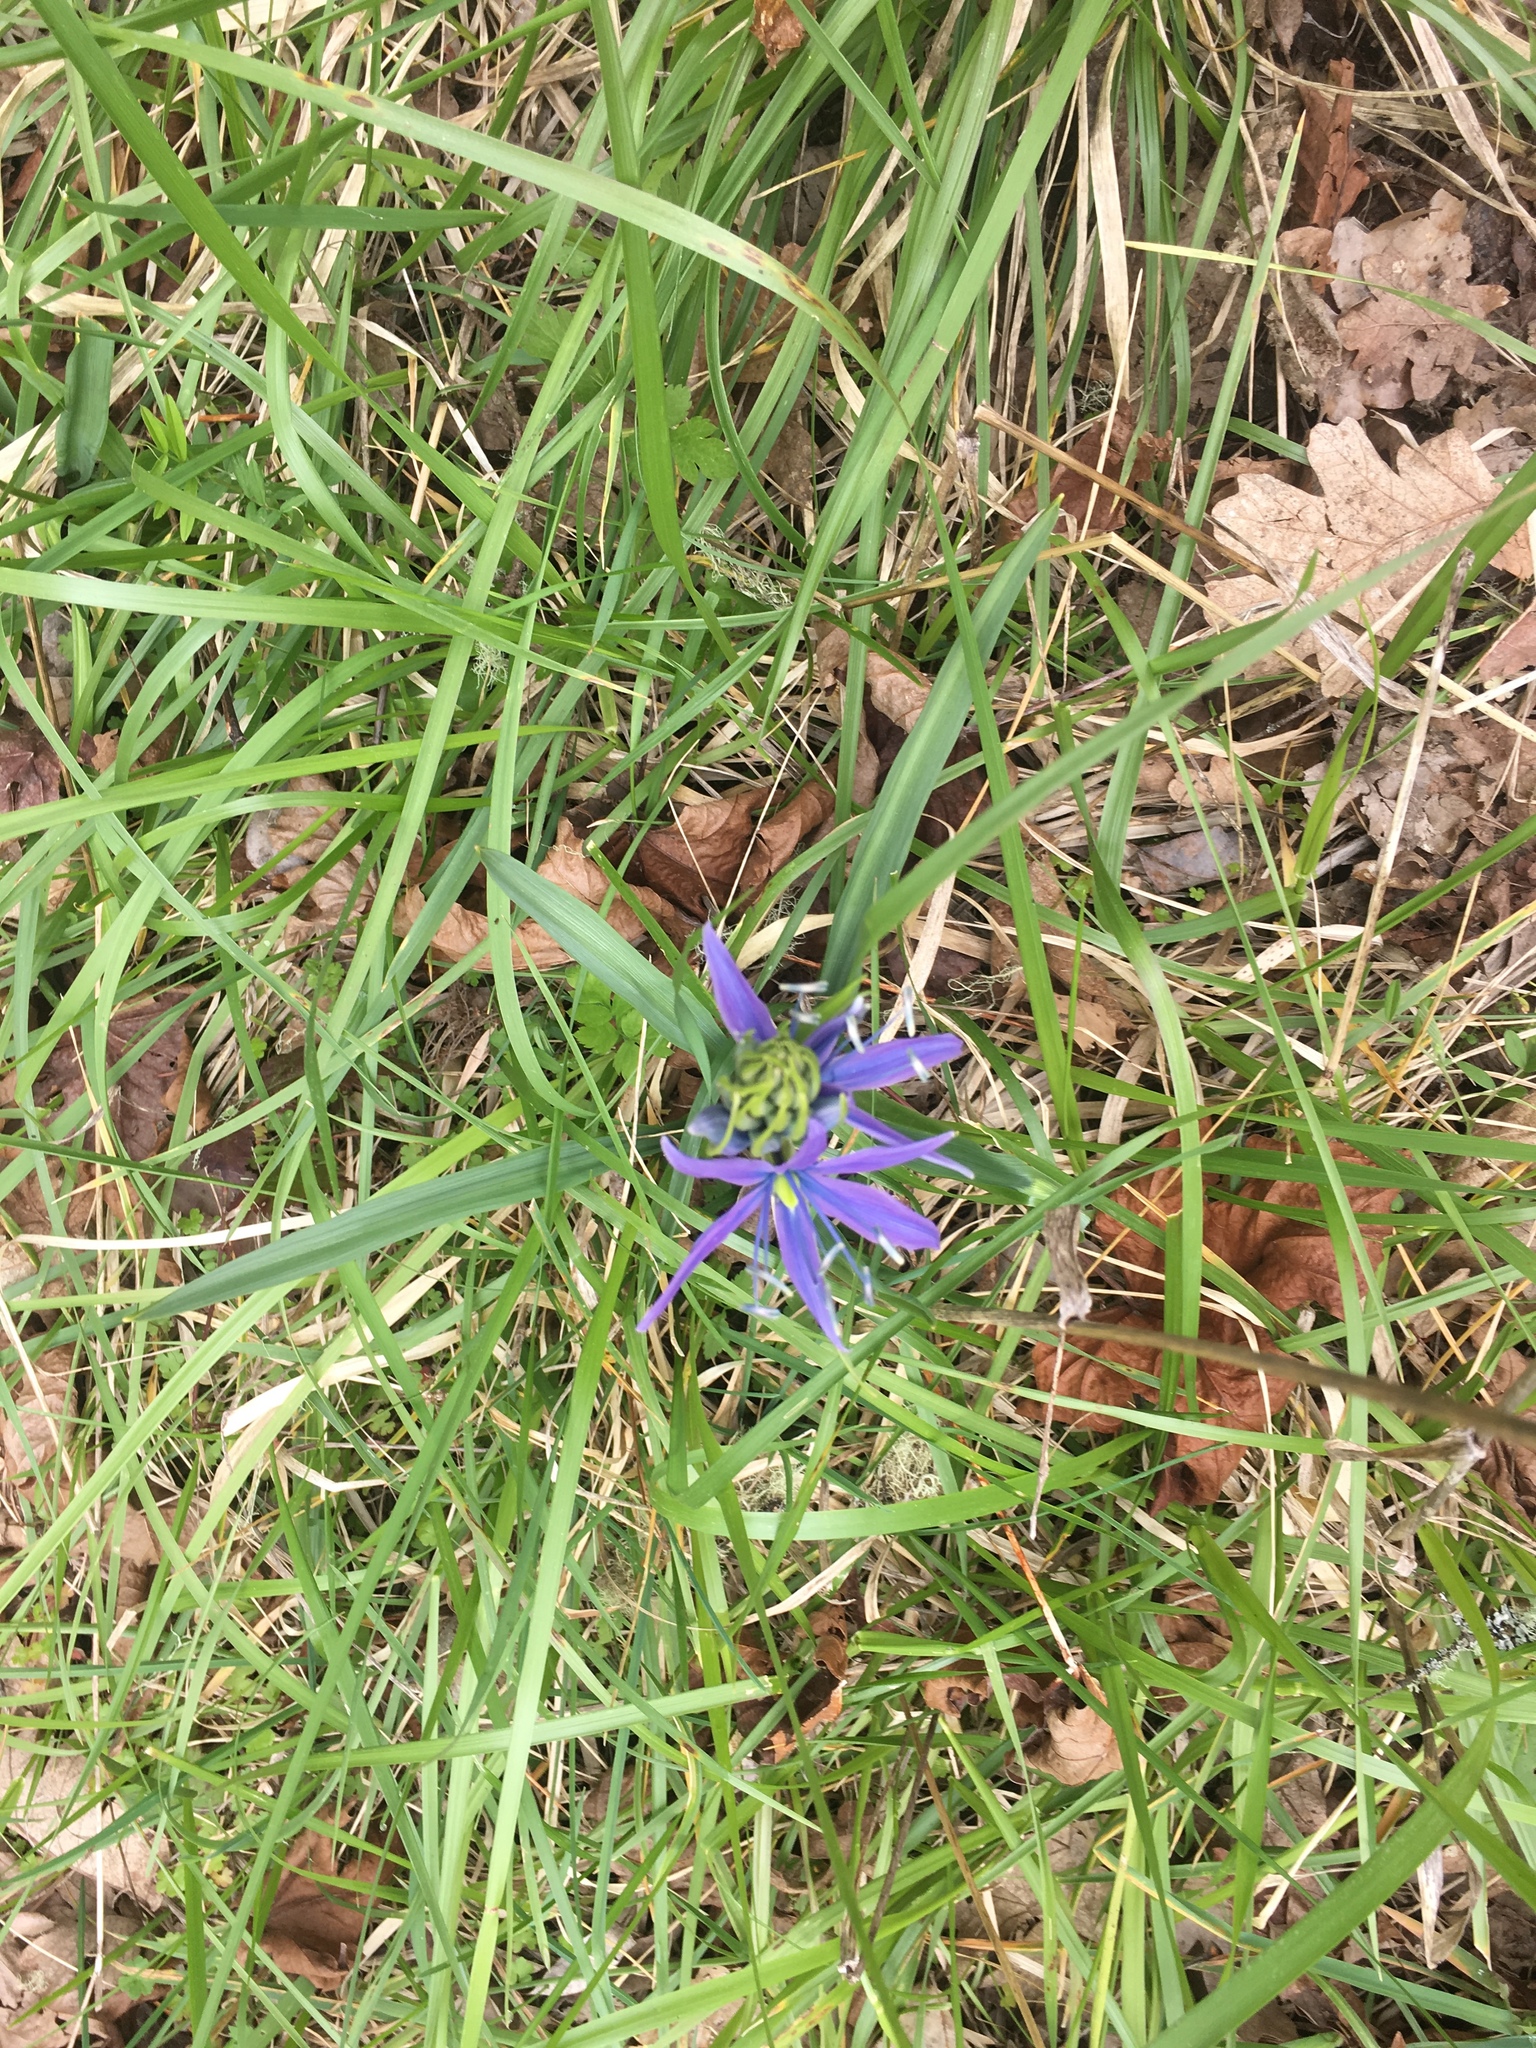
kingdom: Plantae
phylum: Tracheophyta
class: Liliopsida
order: Asparagales
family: Asparagaceae
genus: Camassia
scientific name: Camassia leichtlinii
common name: Leichtlin's camas
